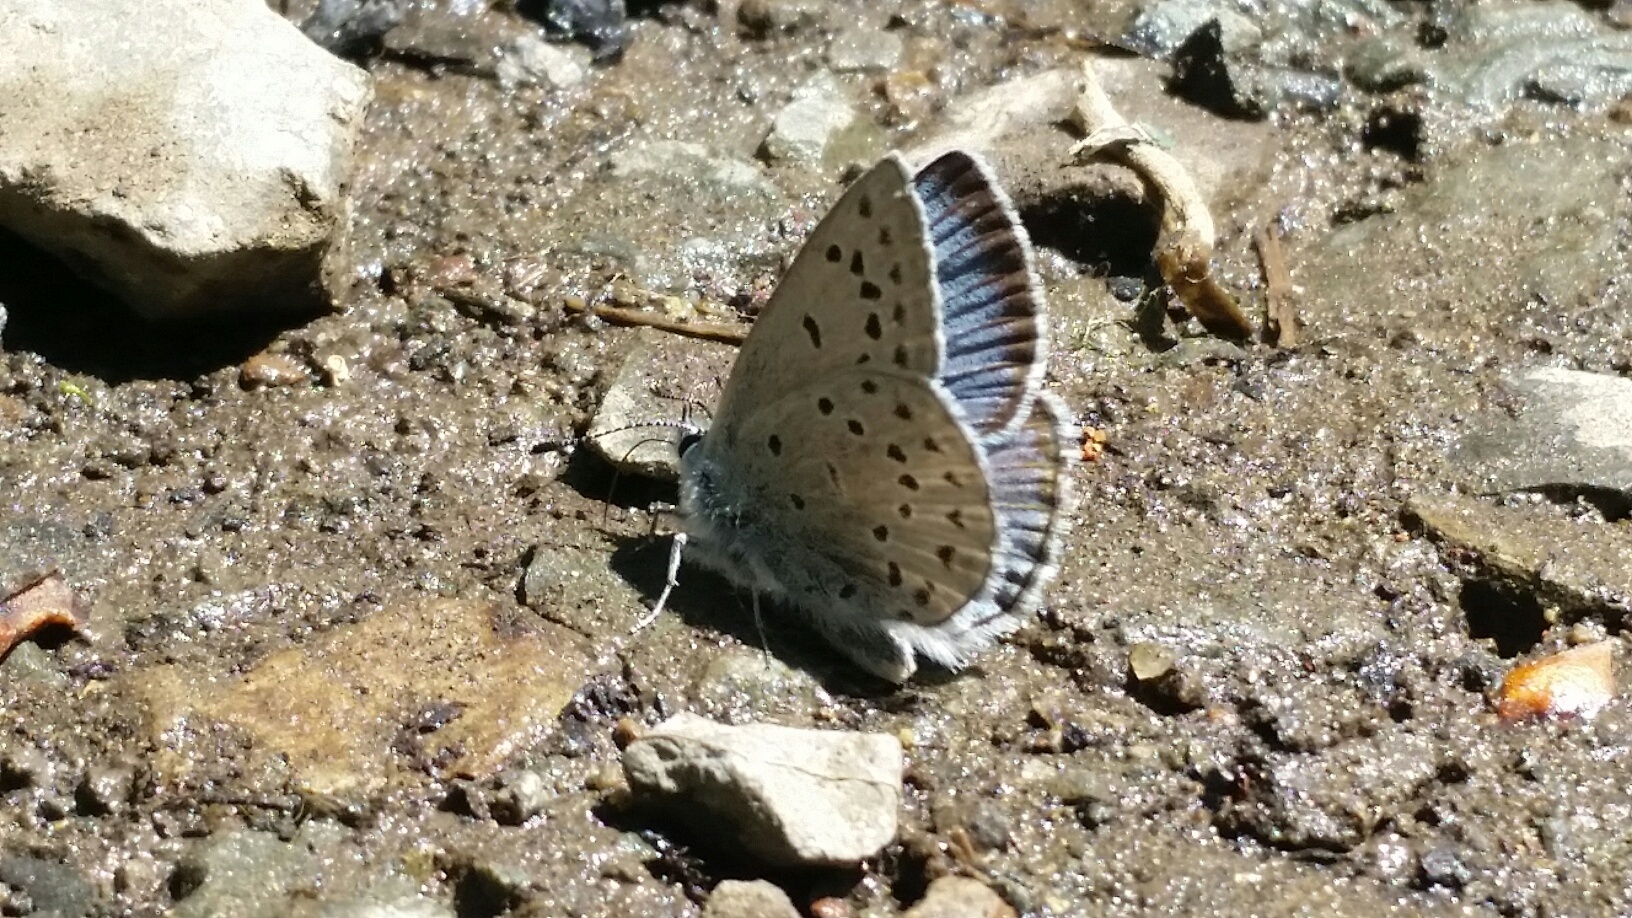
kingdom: Animalia
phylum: Arthropoda
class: Insecta
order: Lepidoptera
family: Lycaenidae
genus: Icaricia
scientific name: Icaricia icarioides
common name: Boisduval's blue
